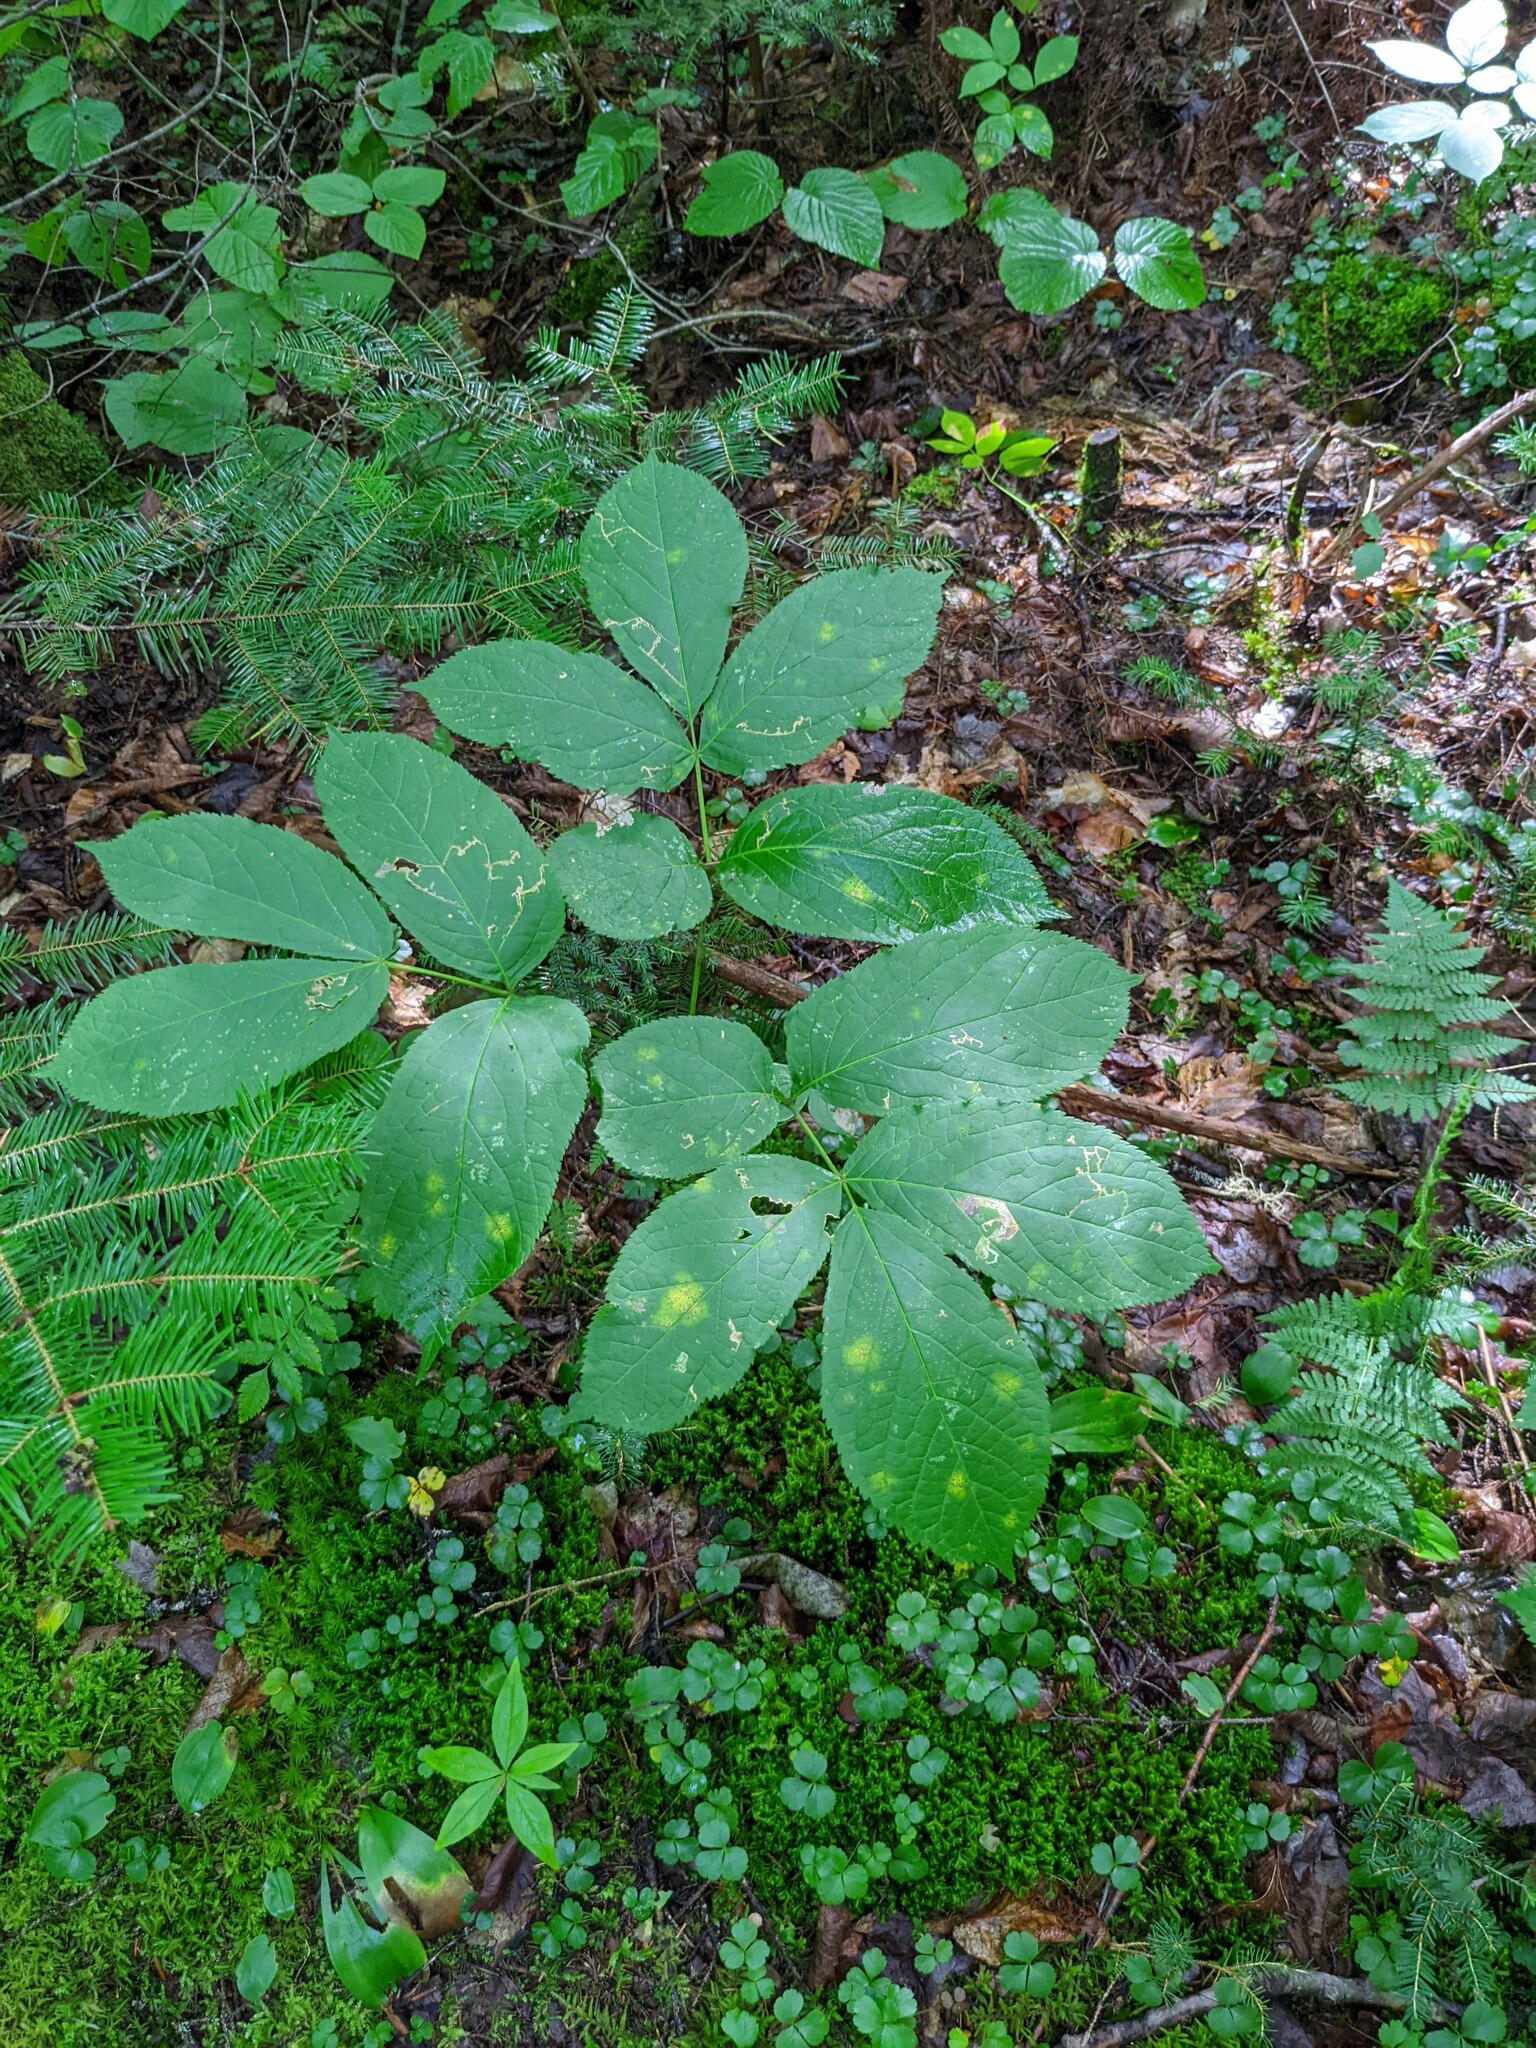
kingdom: Plantae
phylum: Tracheophyta
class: Magnoliopsida
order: Apiales
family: Araliaceae
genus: Aralia
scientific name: Aralia nudicaulis
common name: Wild sarsaparilla
